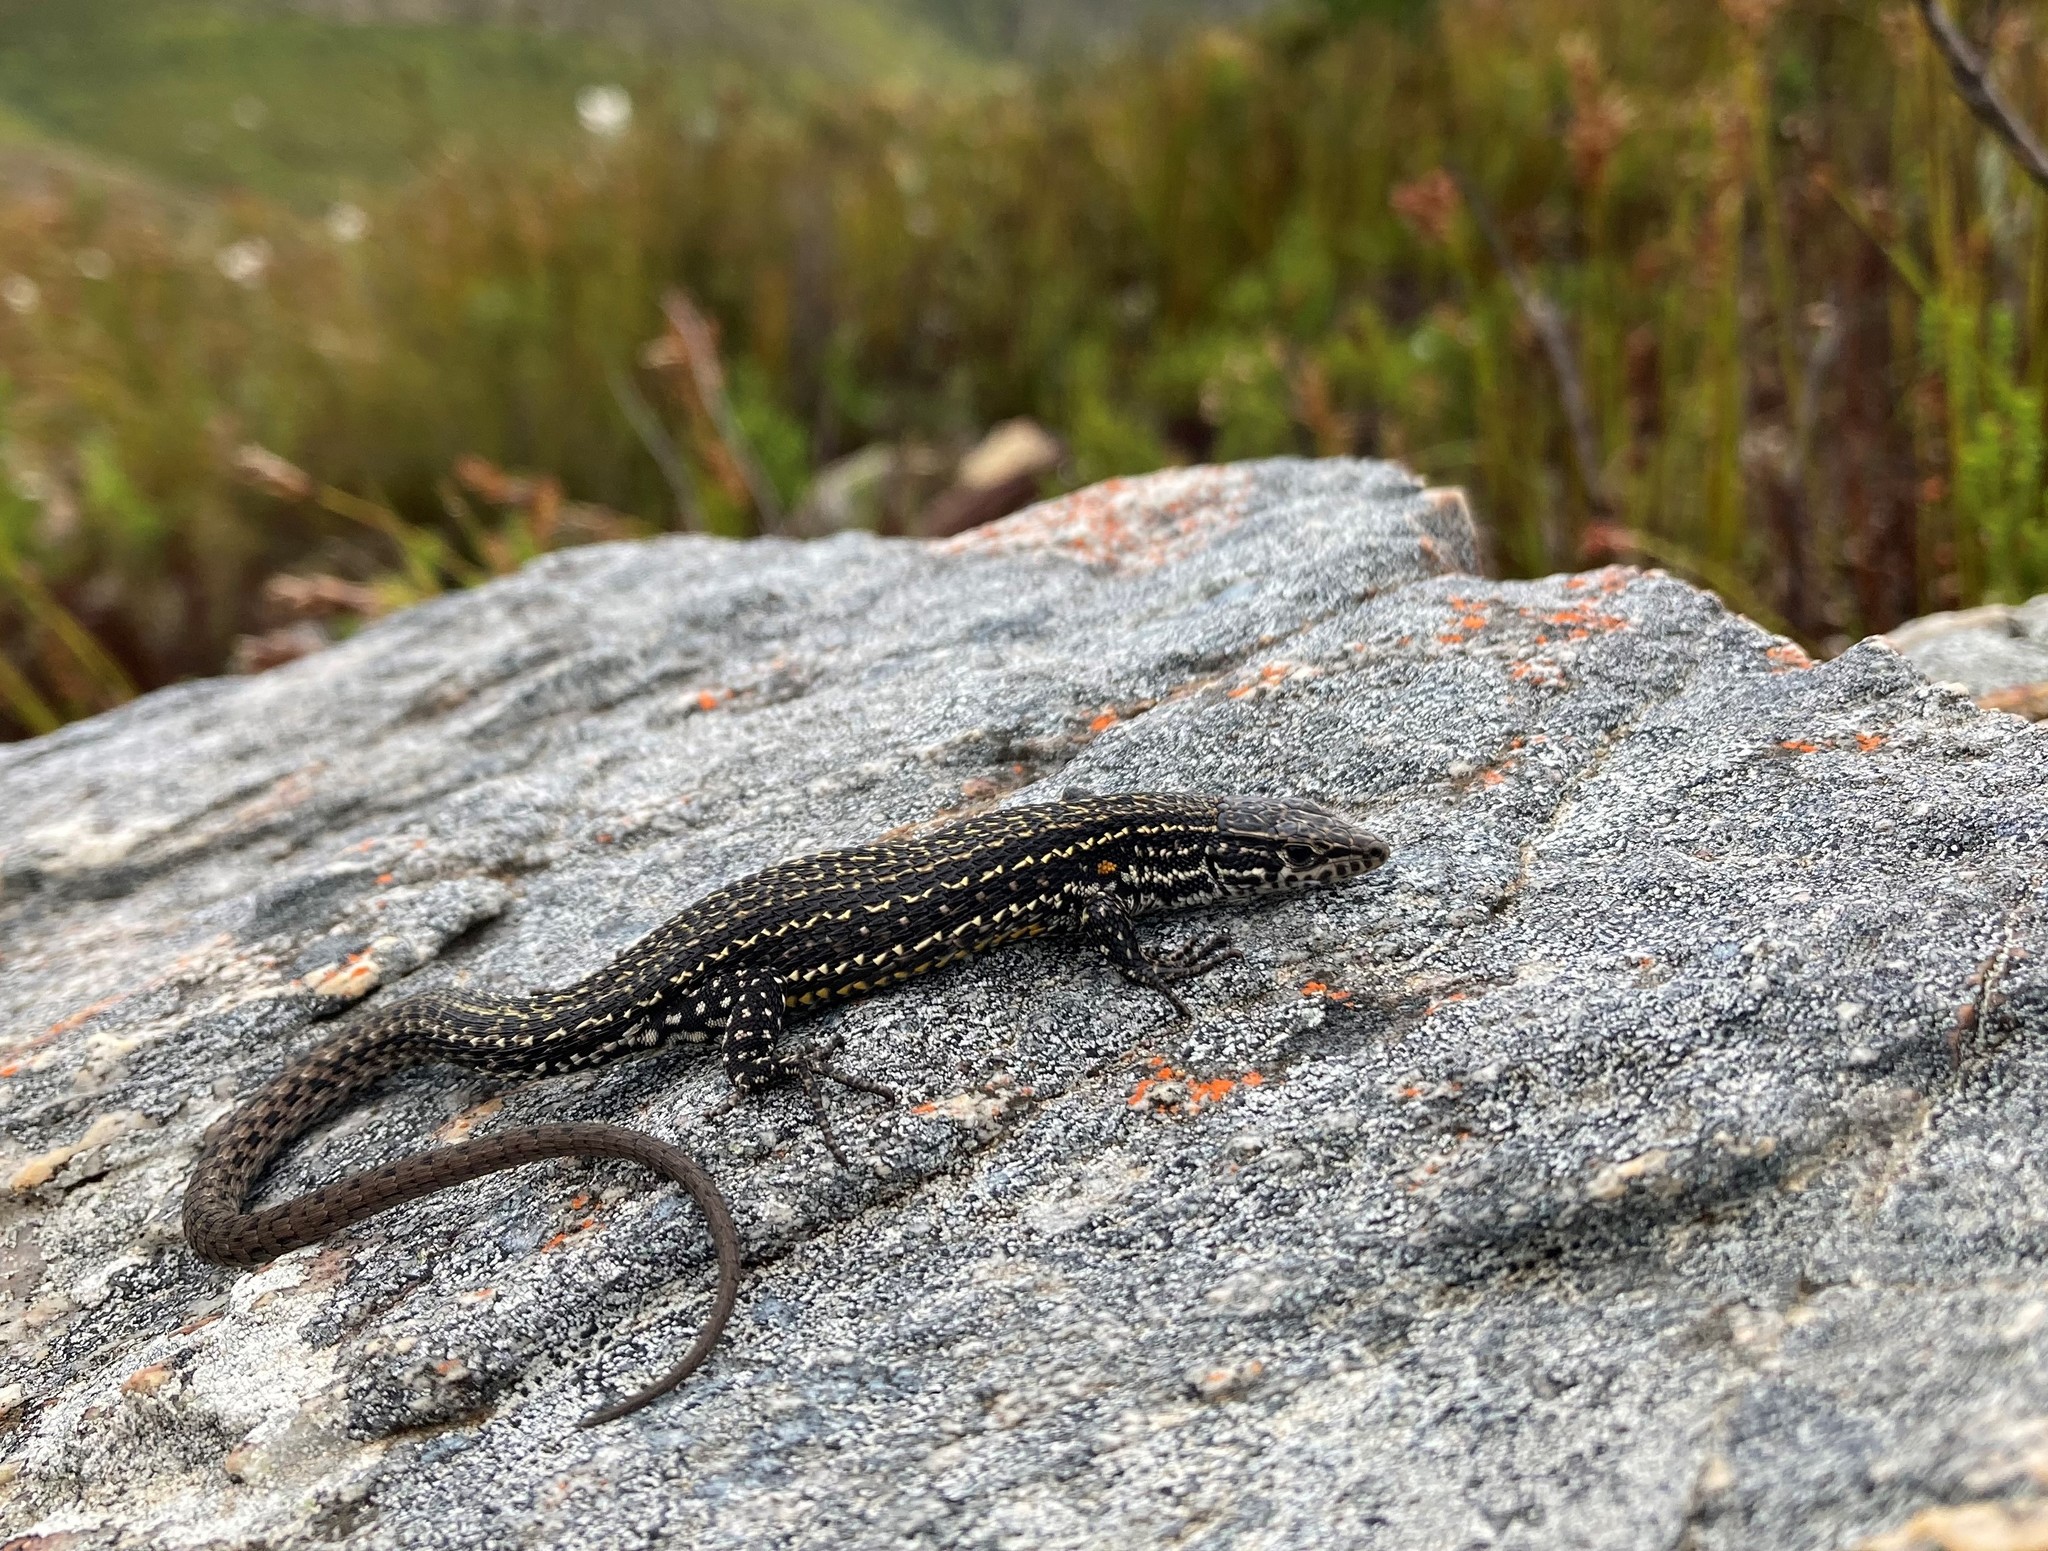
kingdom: Animalia
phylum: Chordata
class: Squamata
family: Lacertidae
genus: Tropidosaura
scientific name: Tropidosaura gularis
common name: Cape mountain lizard
